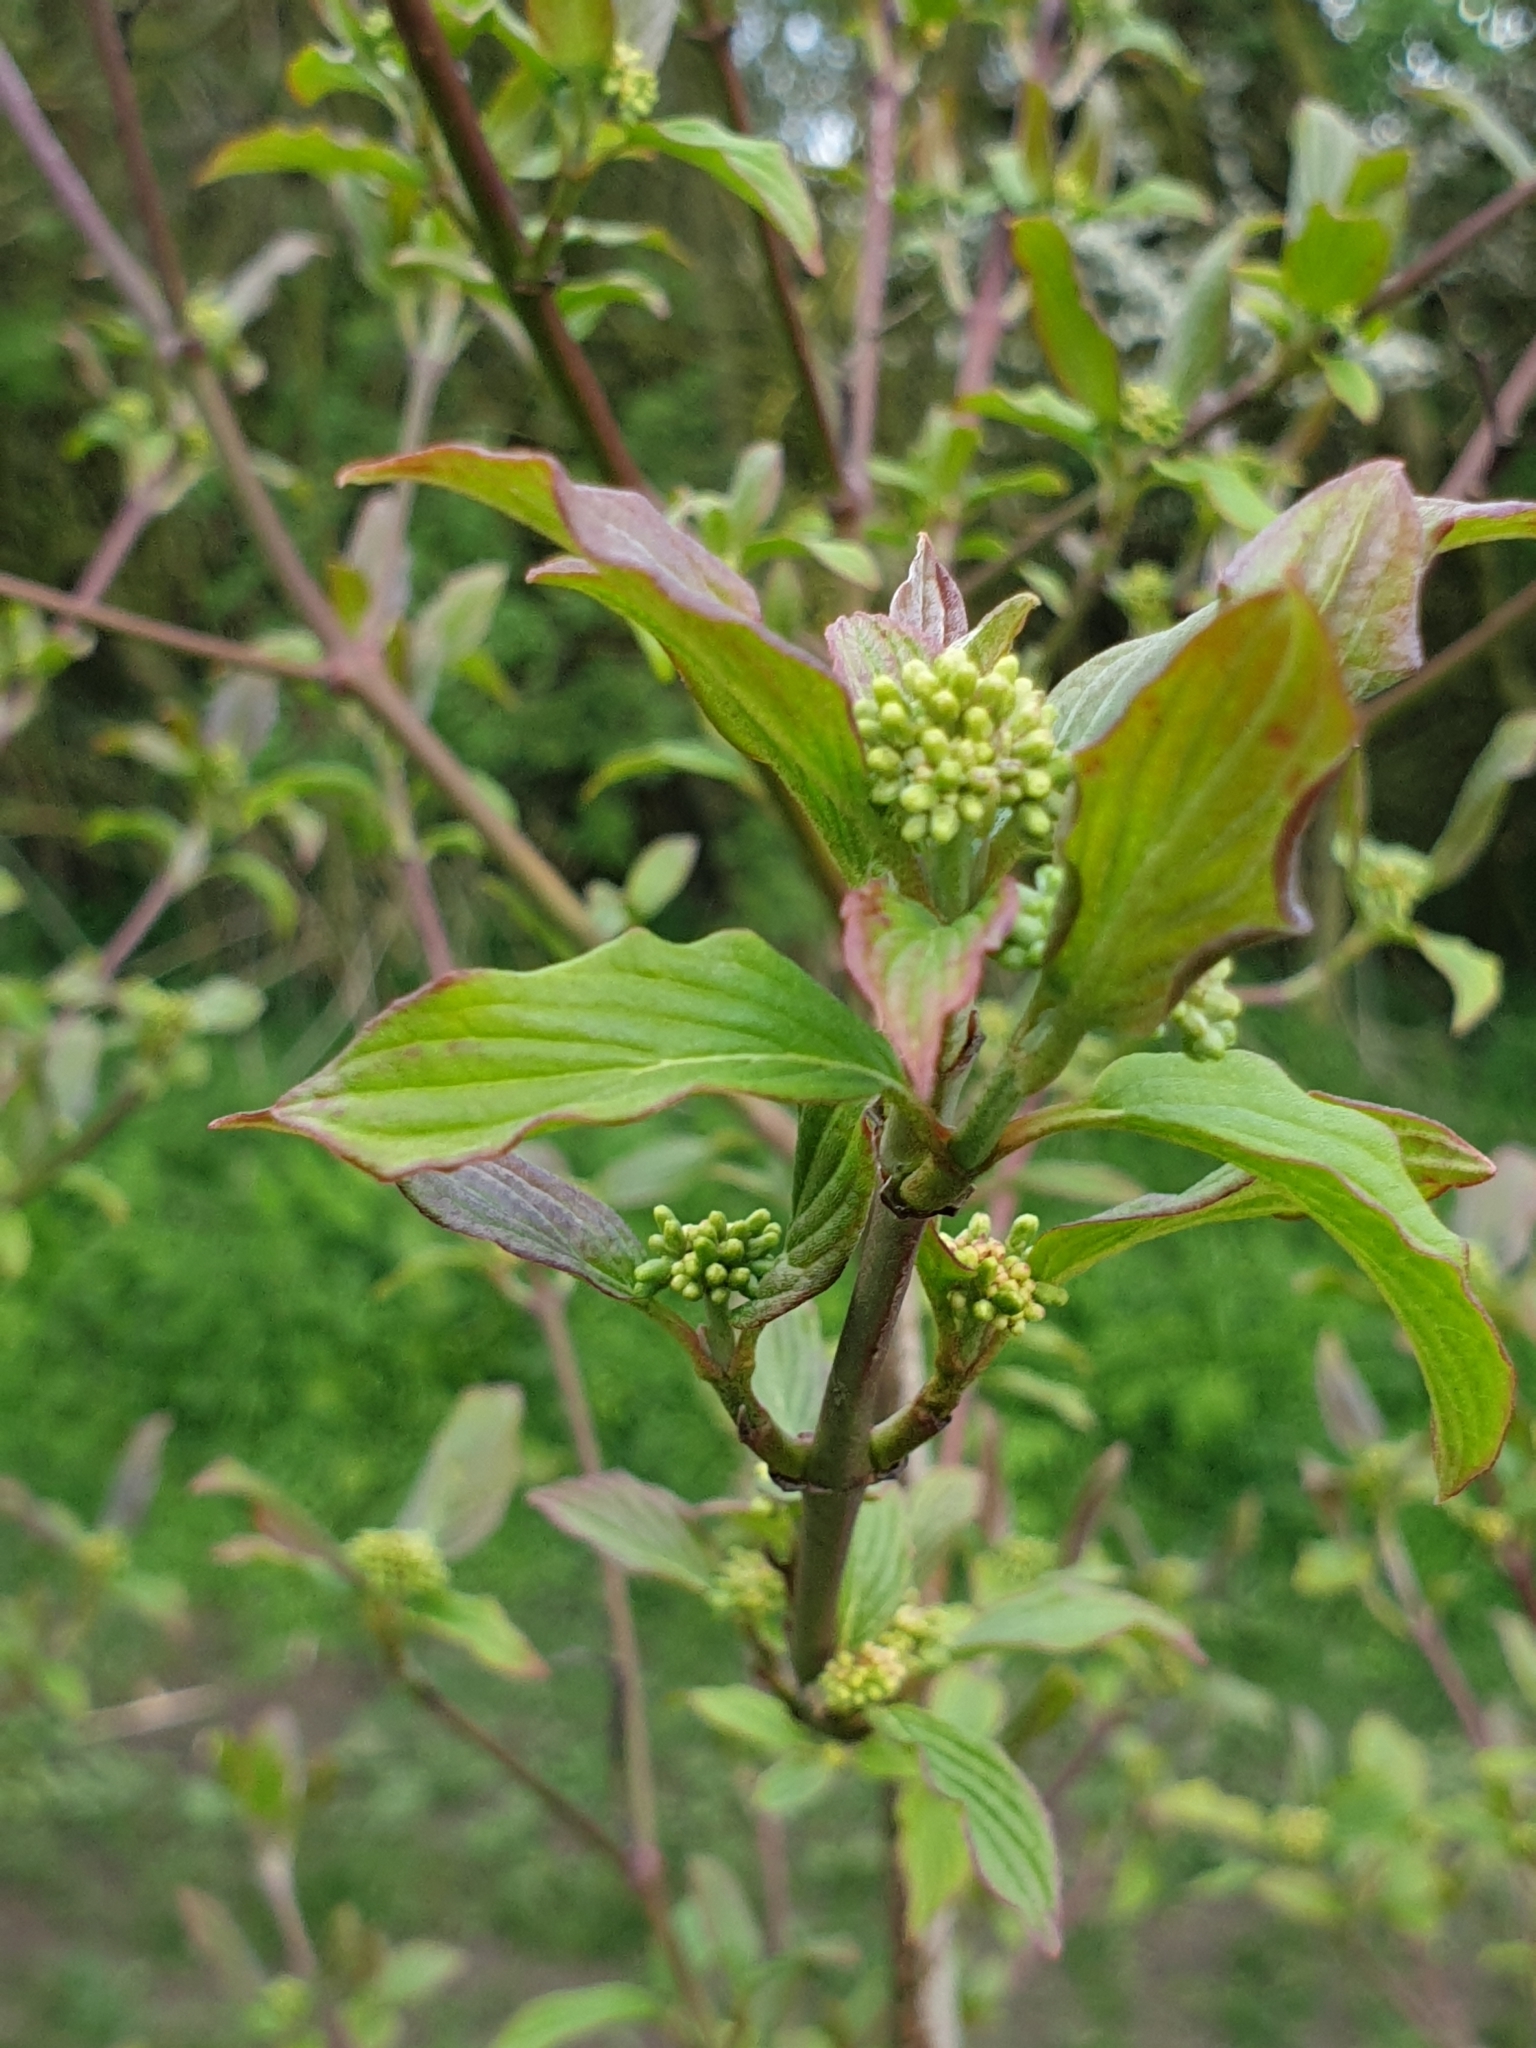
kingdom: Plantae
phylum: Tracheophyta
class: Magnoliopsida
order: Cornales
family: Cornaceae
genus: Cornus
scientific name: Cornus sanguinea
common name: Dogwood
